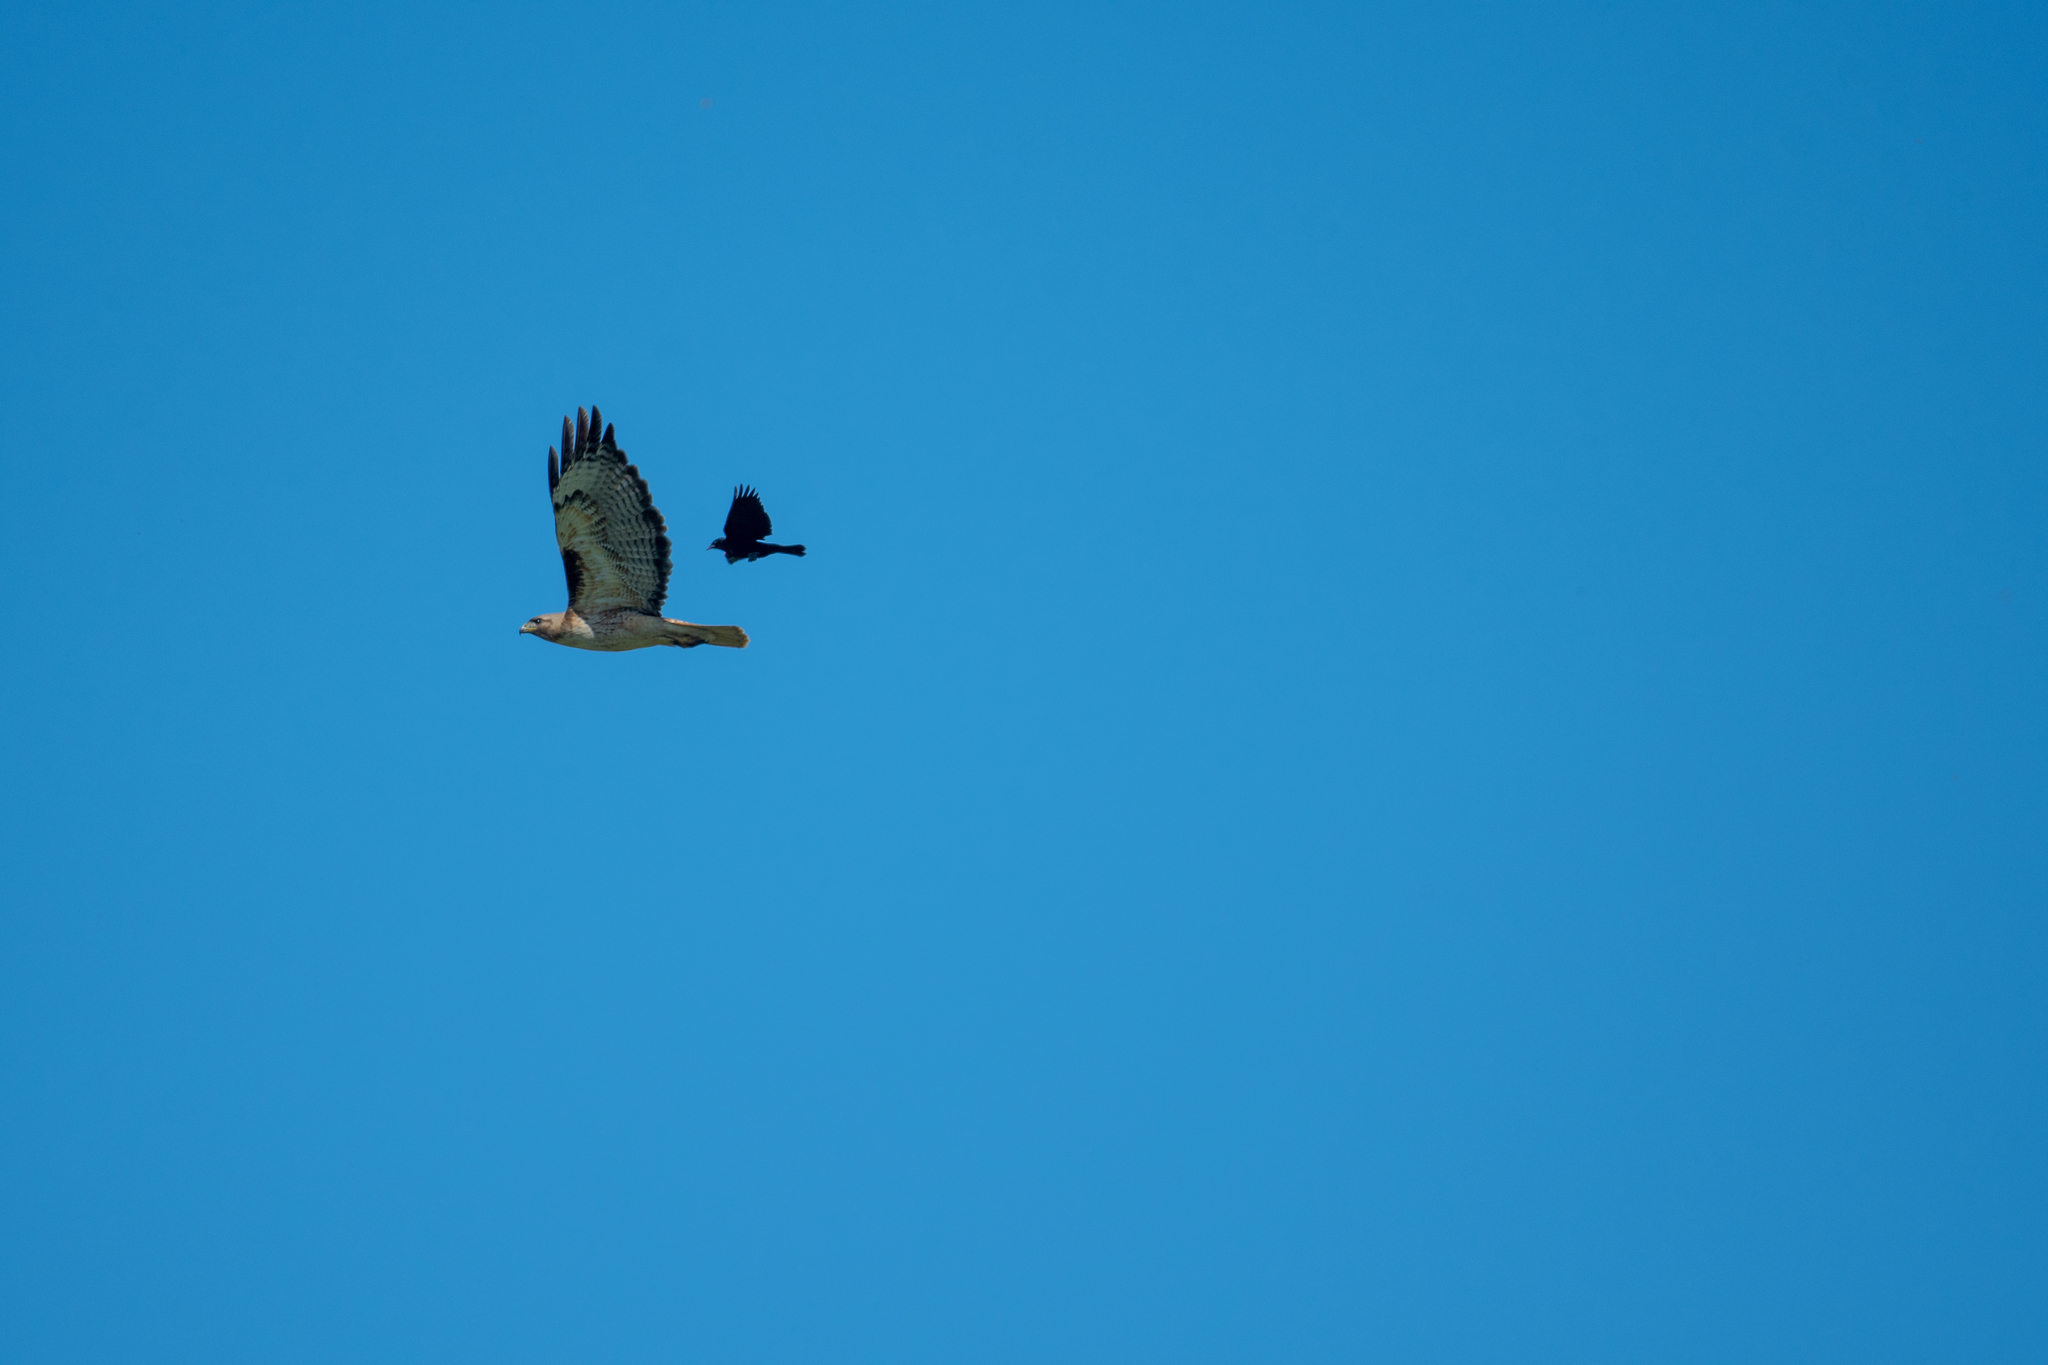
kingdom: Animalia
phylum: Chordata
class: Aves
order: Accipitriformes
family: Accipitridae
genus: Buteo
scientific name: Buteo jamaicensis
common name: Red-tailed hawk
